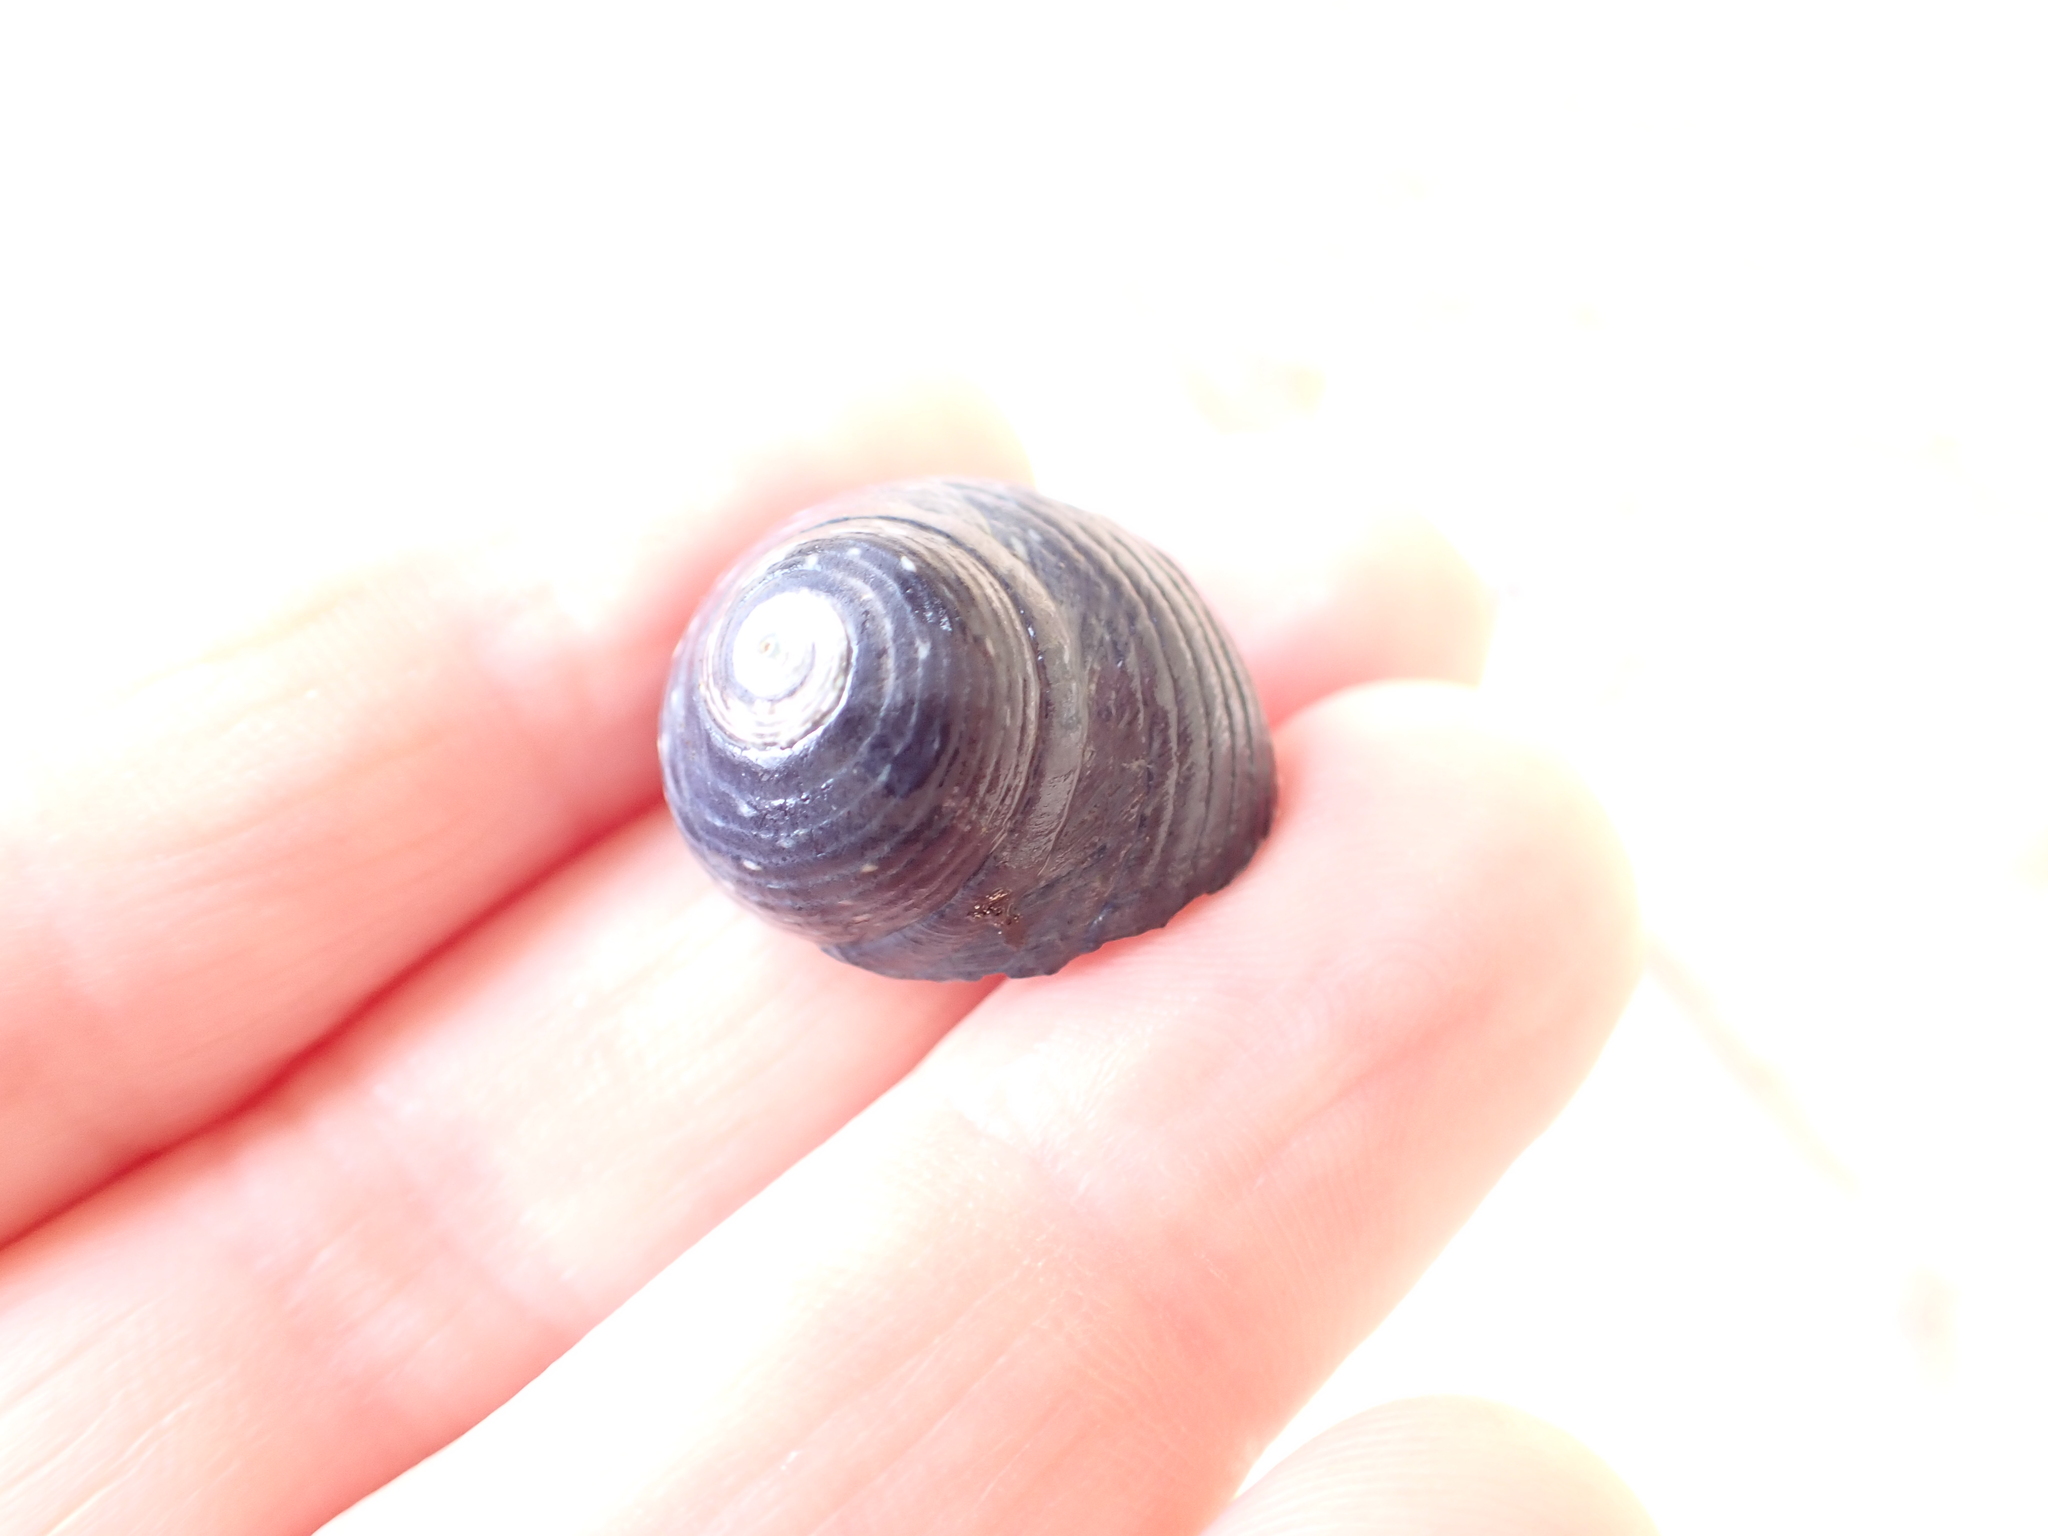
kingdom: Animalia
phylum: Mollusca
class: Gastropoda
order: Trochida
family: Trochidae
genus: Diloma
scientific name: Diloma zelandicum
